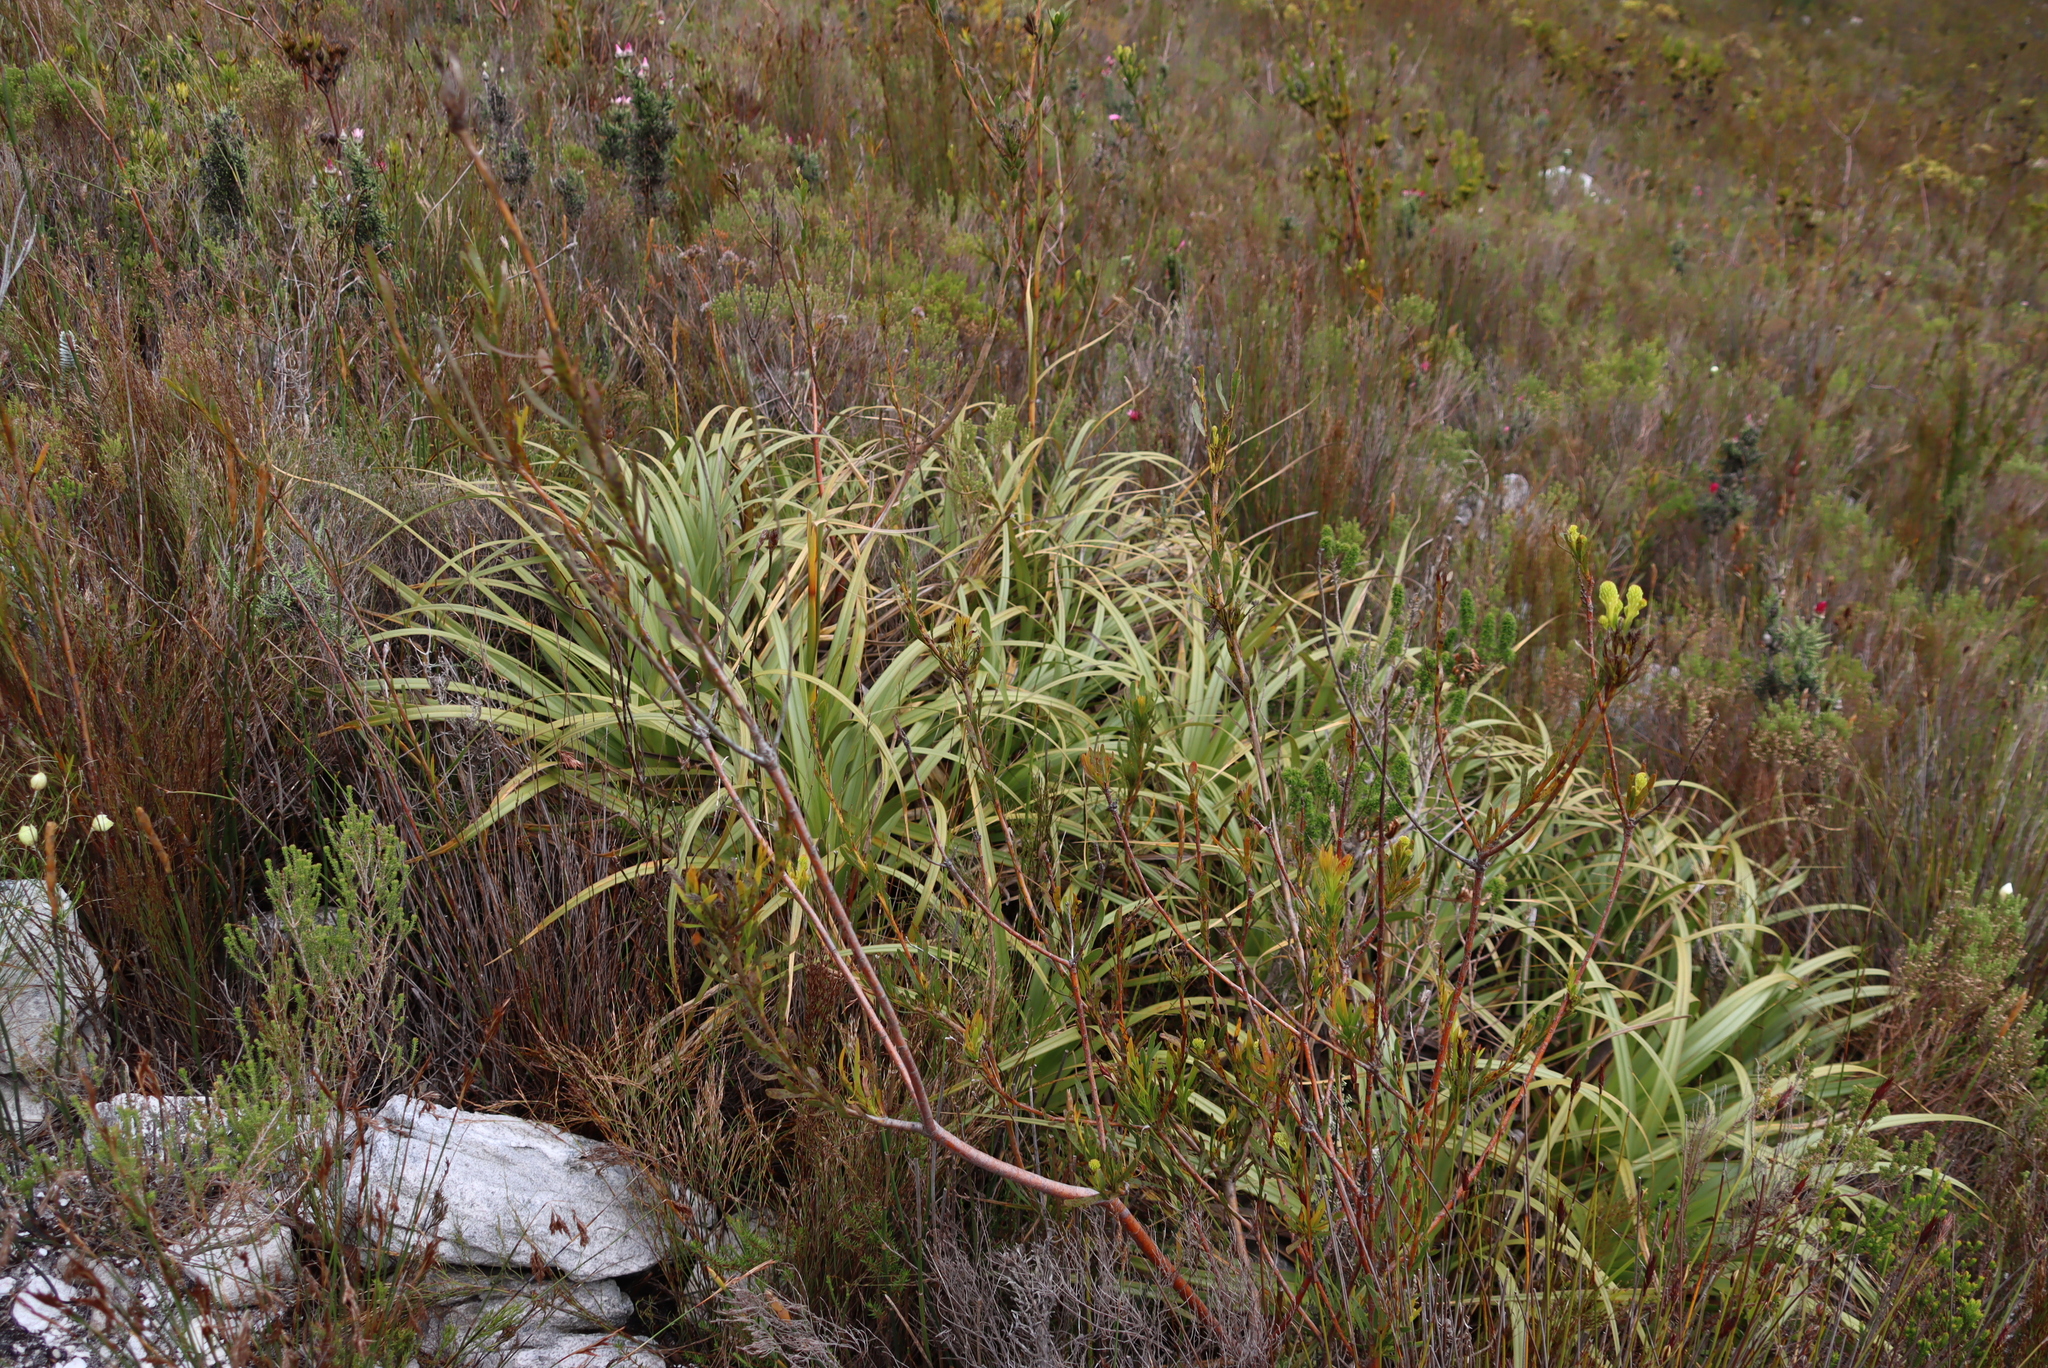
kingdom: Plantae
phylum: Tracheophyta
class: Liliopsida
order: Poales
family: Cyperaceae
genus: Tetraria
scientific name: Tetraria thermalis
